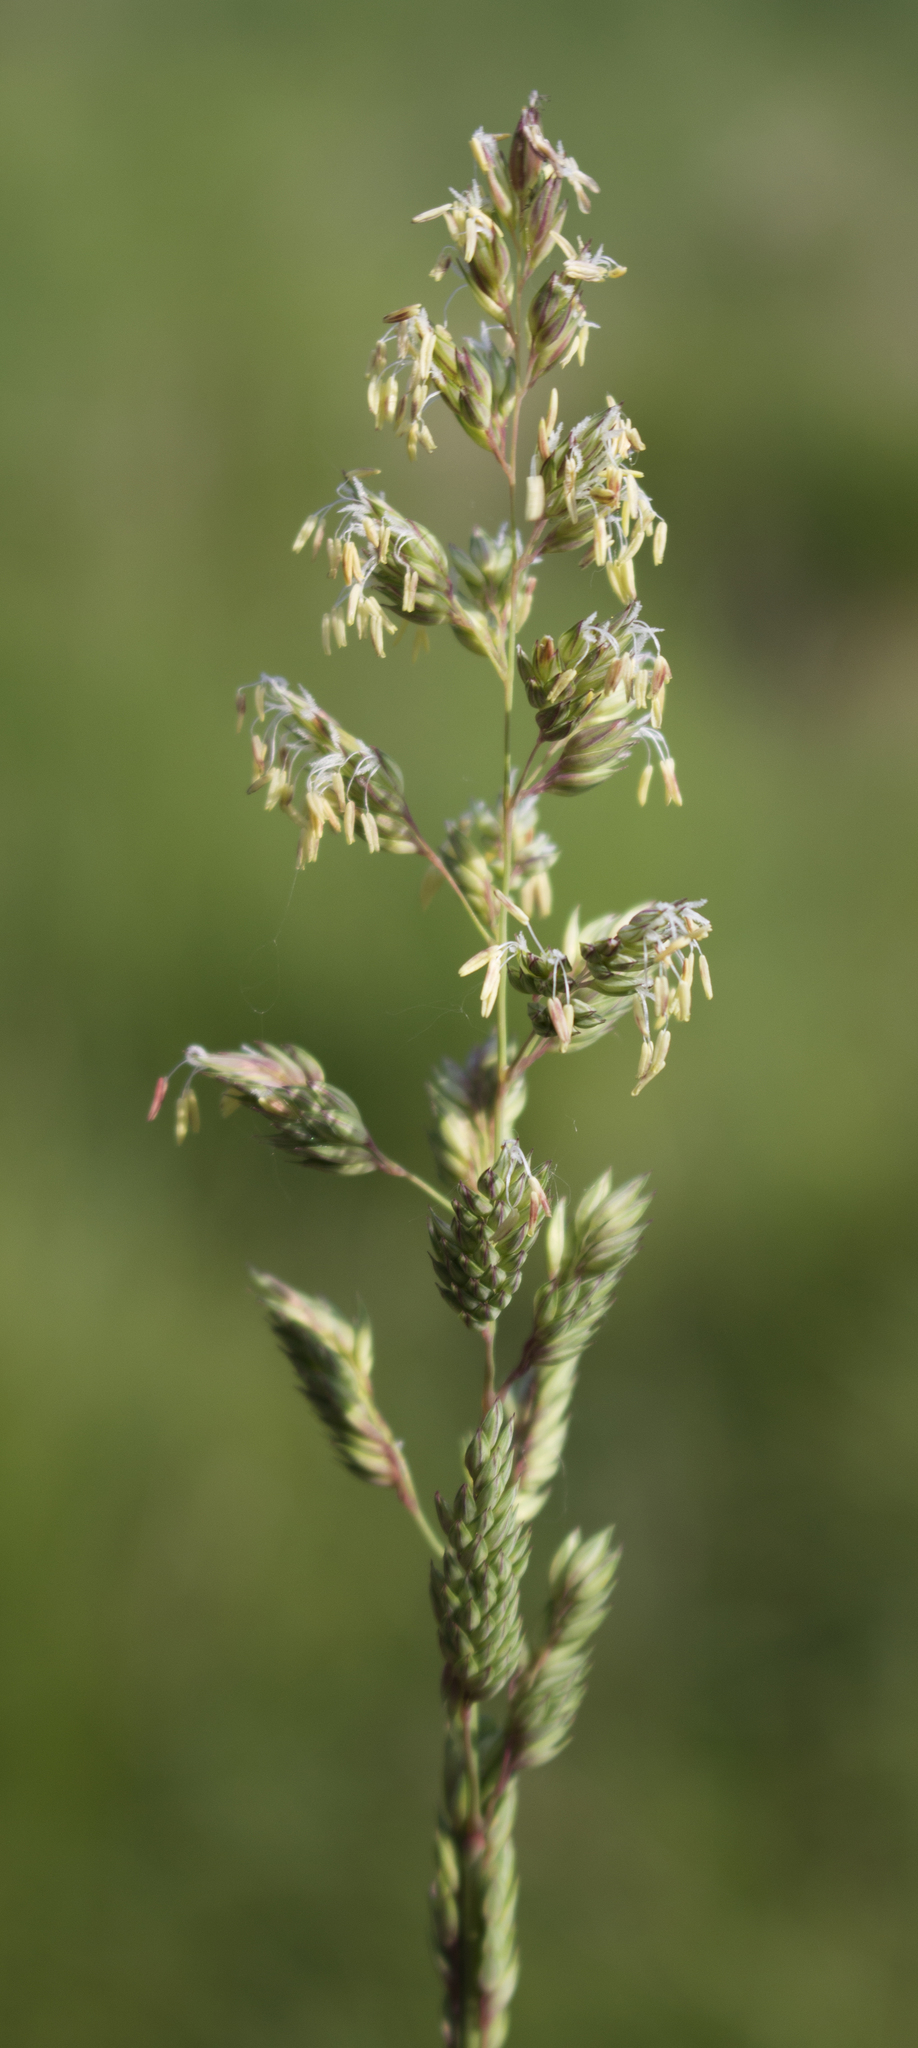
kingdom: Plantae
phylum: Tracheophyta
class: Liliopsida
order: Poales
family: Poaceae
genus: Phalaris
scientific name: Phalaris arundinacea
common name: Reed canary-grass
